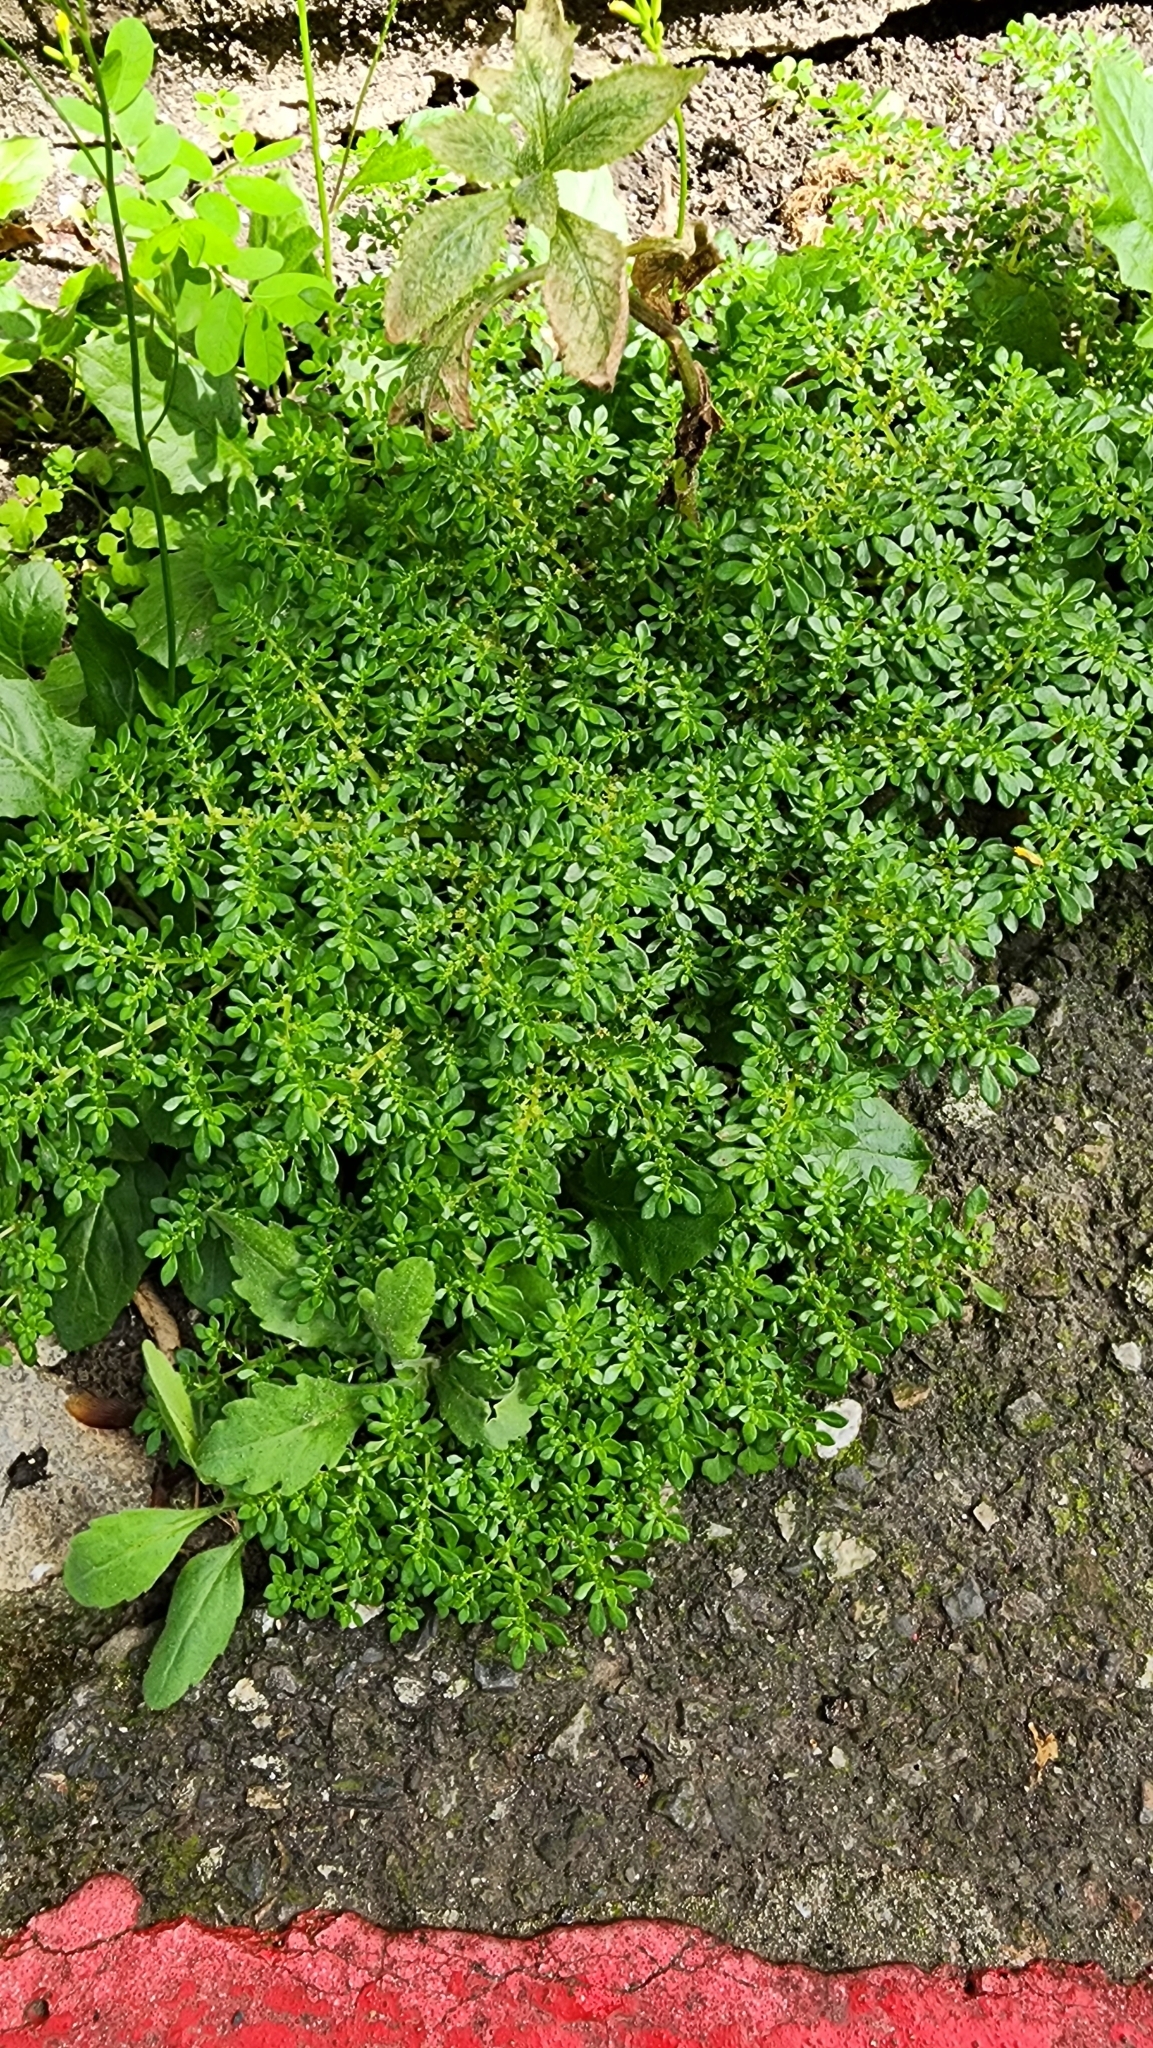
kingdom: Plantae
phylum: Tracheophyta
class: Magnoliopsida
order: Rosales
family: Urticaceae
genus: Pilea
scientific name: Pilea microphylla
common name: Artillery-plant
